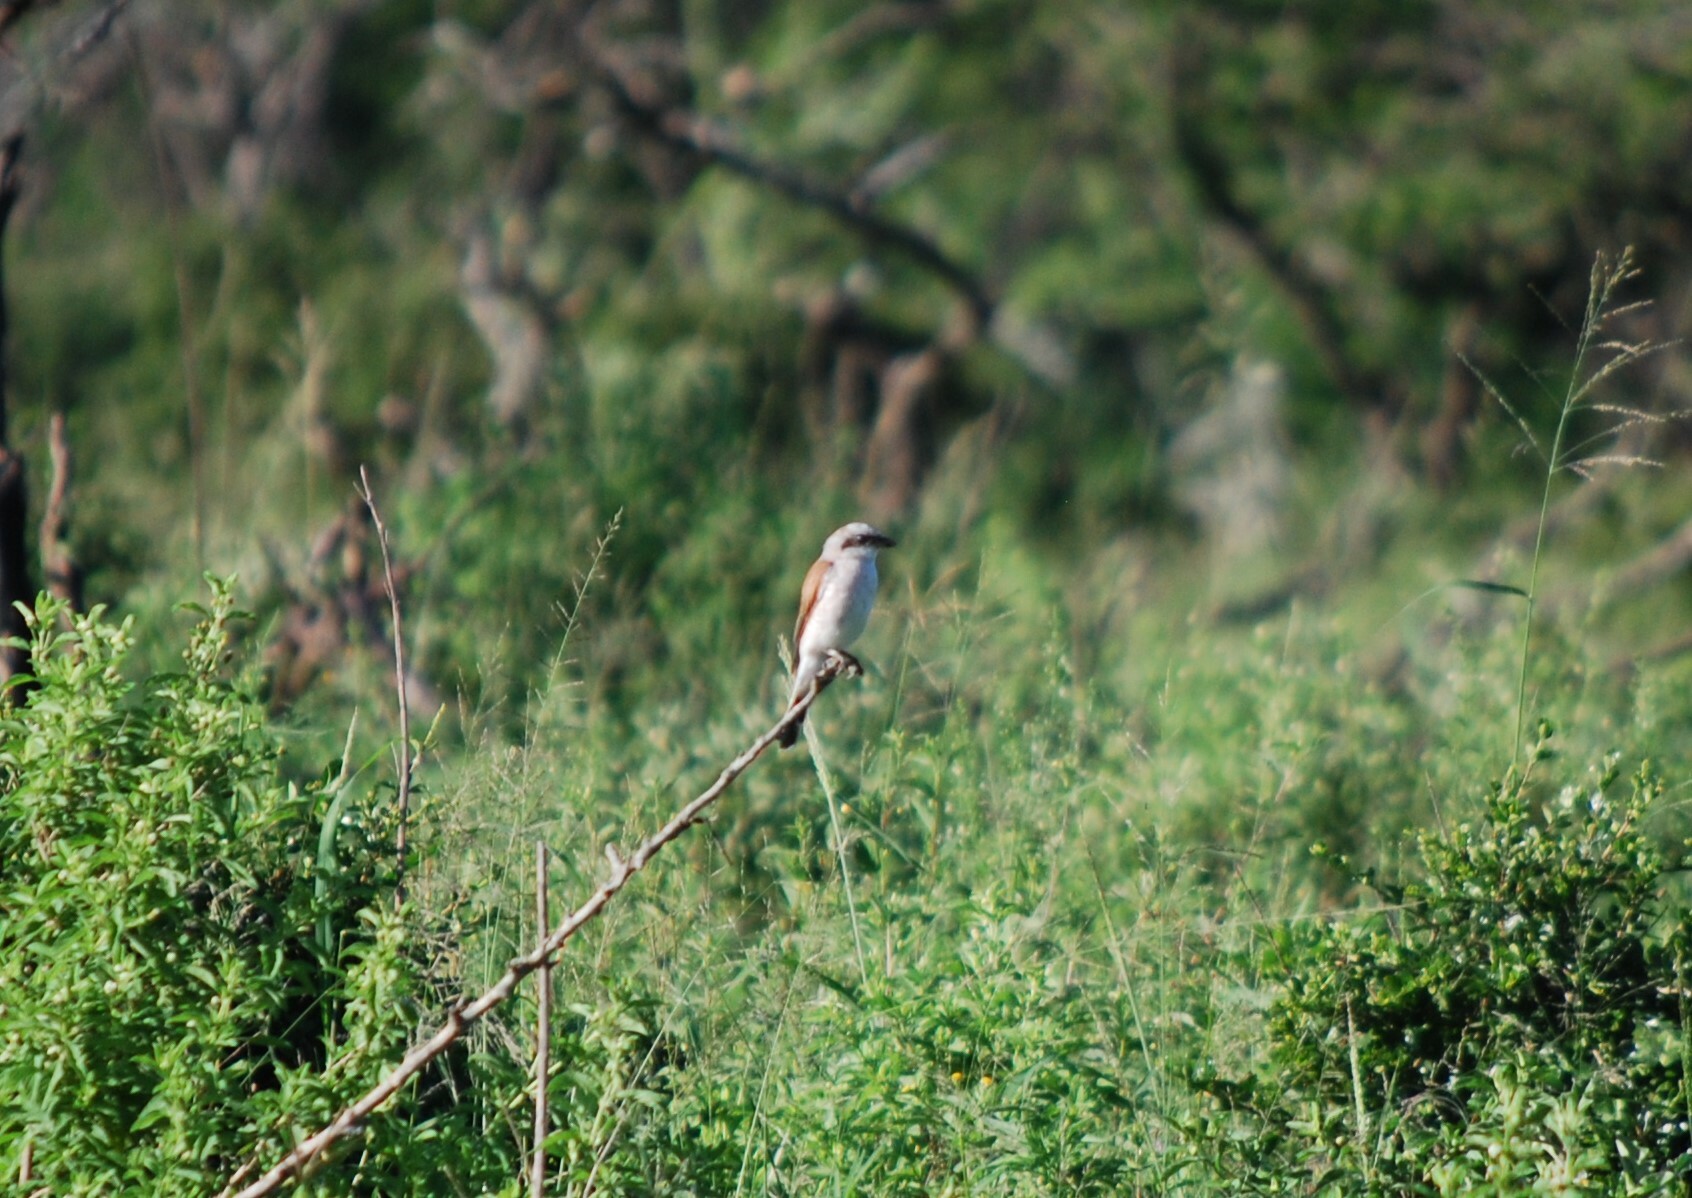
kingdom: Animalia
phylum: Chordata
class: Aves
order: Passeriformes
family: Laniidae
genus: Lanius
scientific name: Lanius collurio
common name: Red-backed shrike
